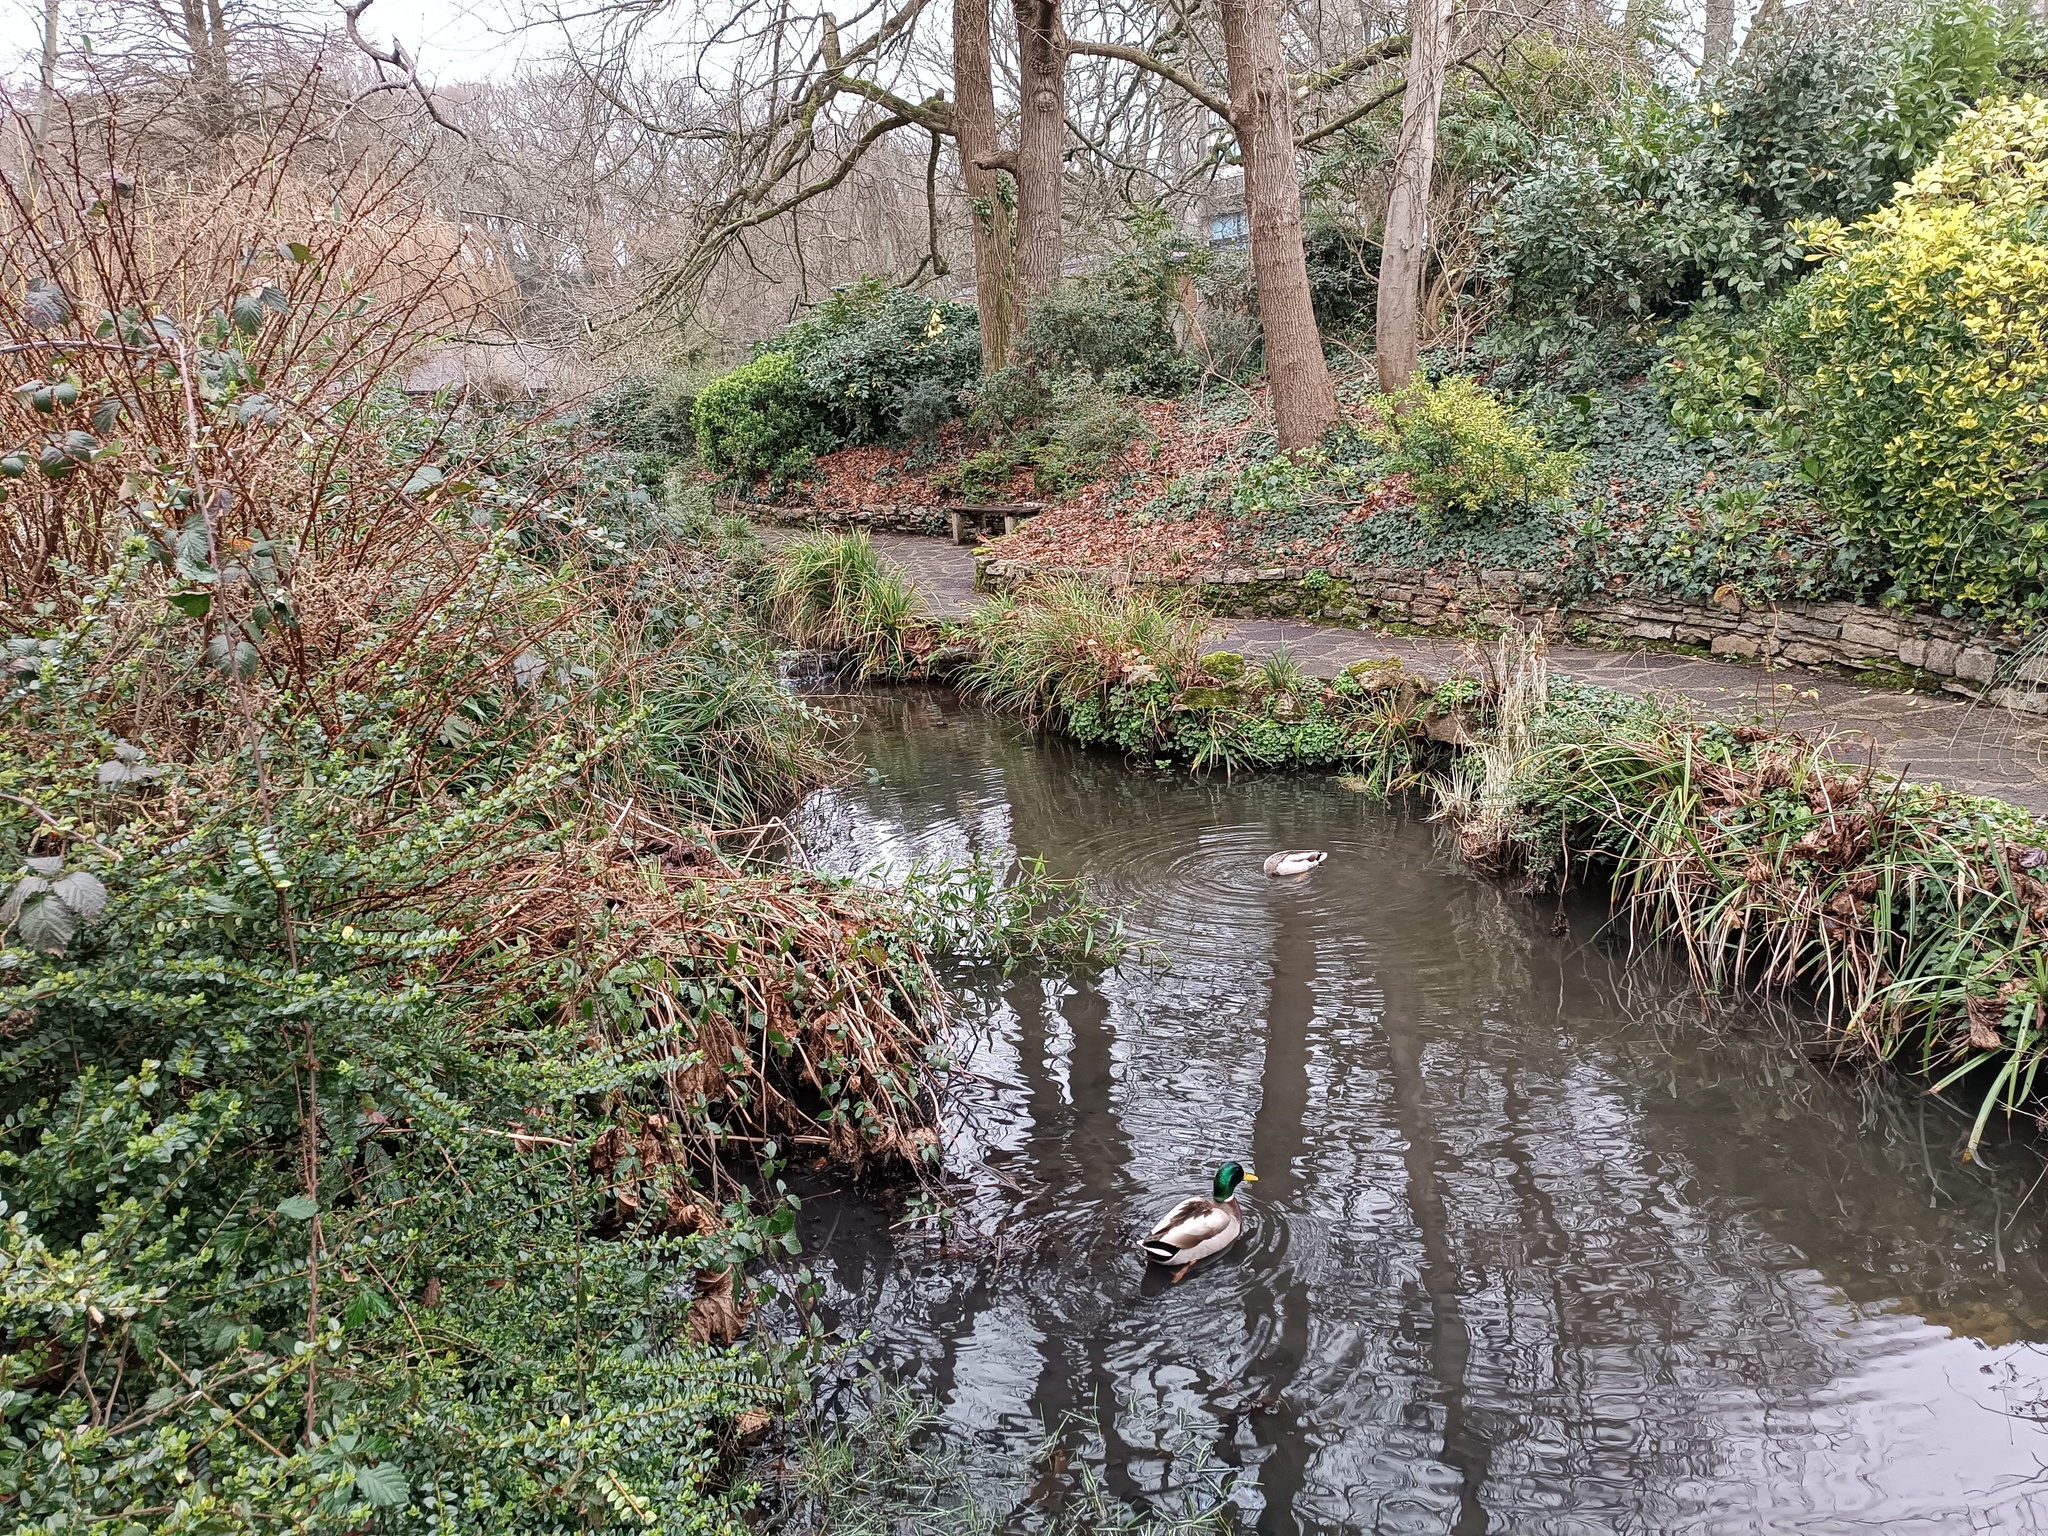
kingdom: Animalia
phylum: Chordata
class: Aves
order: Anseriformes
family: Anatidae
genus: Anas
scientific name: Anas platyrhynchos
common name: Mallard
